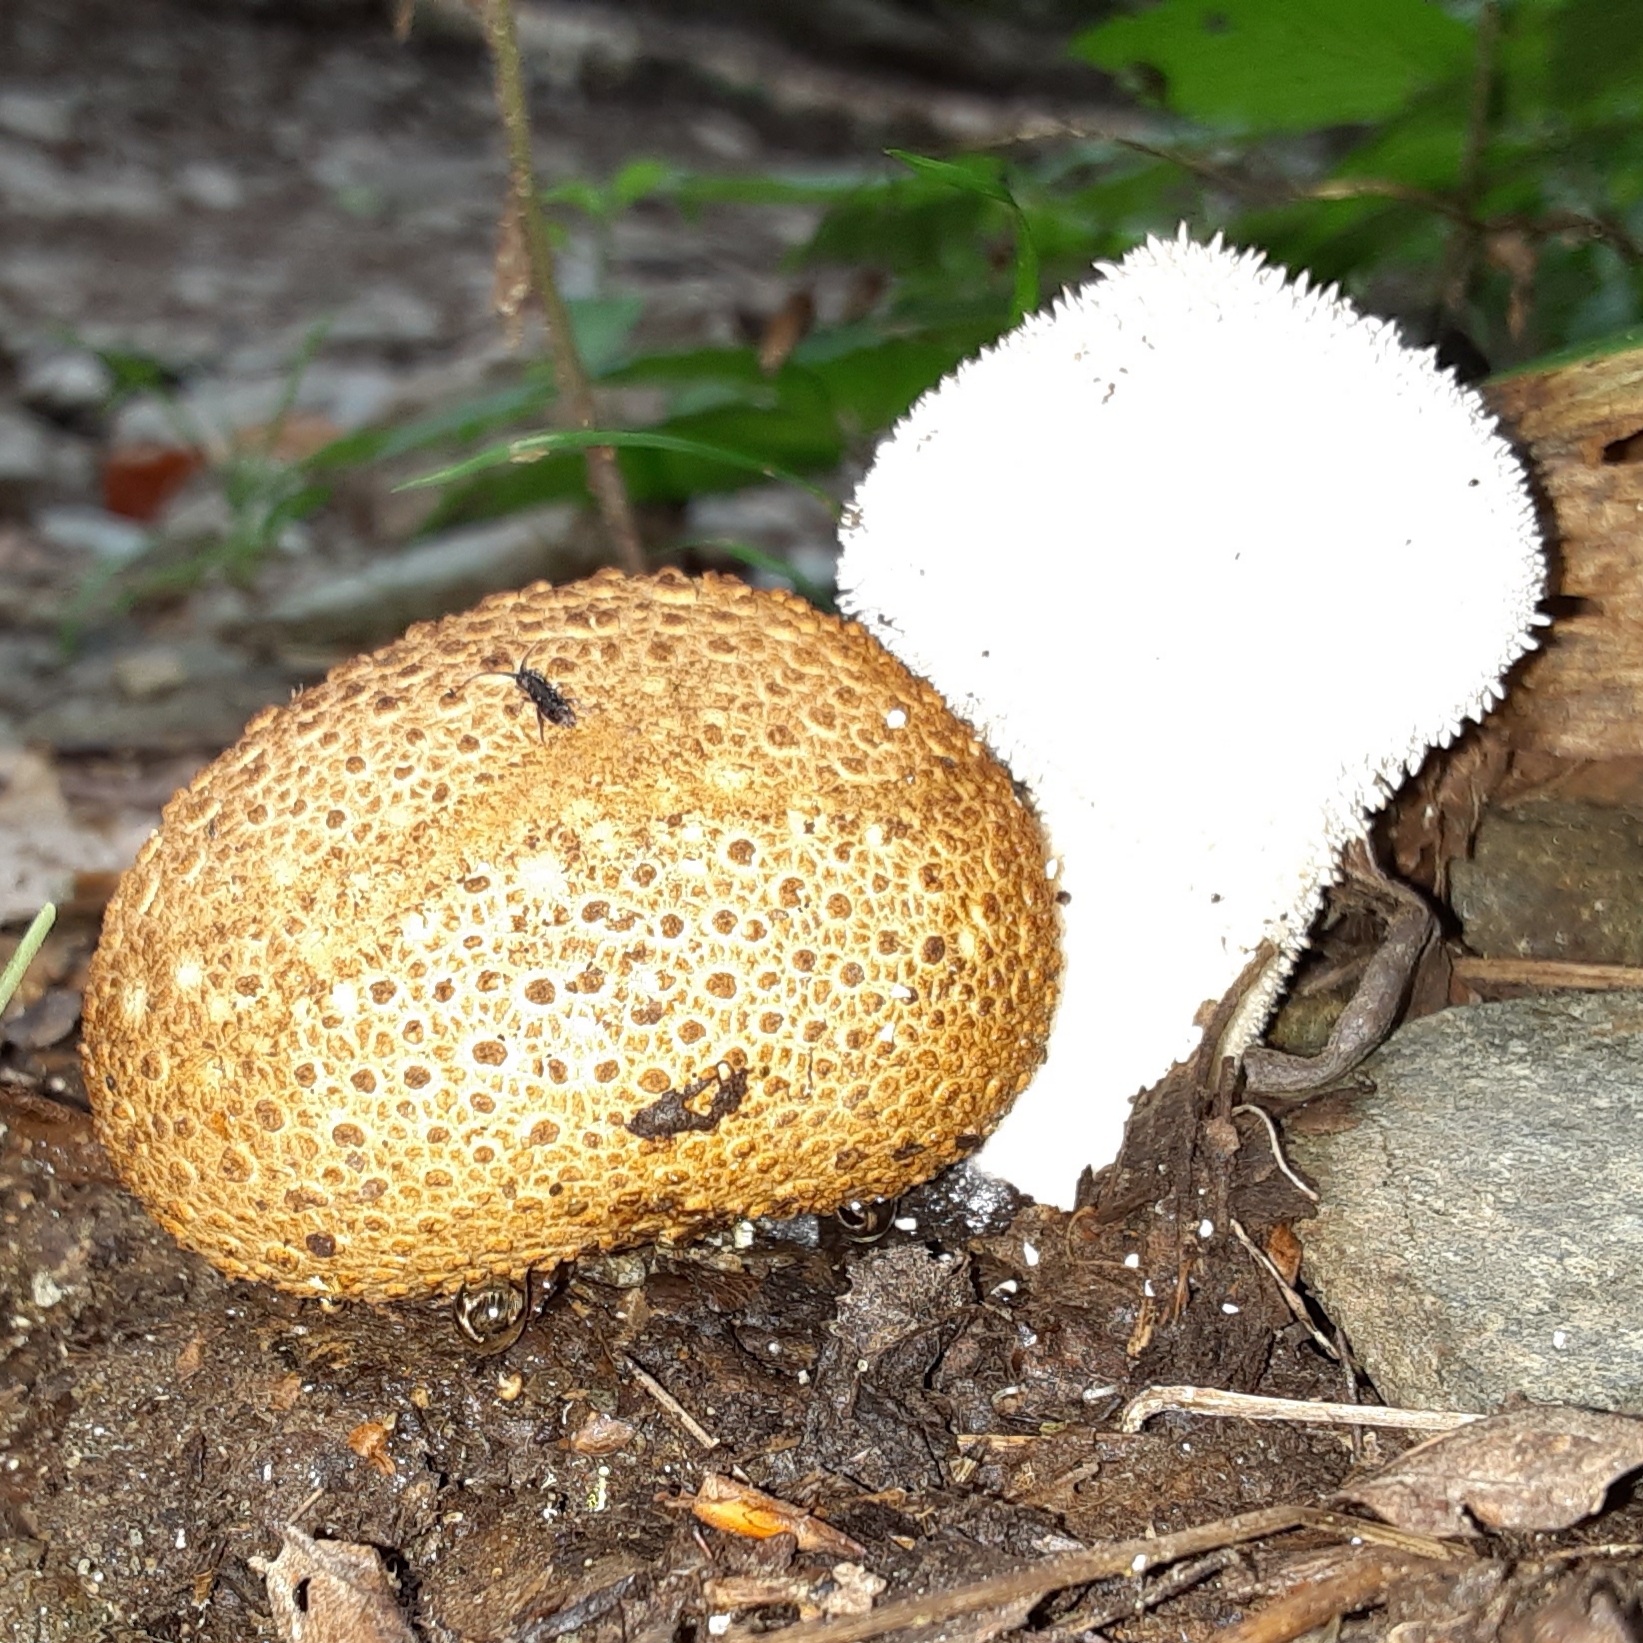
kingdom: Fungi
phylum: Basidiomycota
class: Agaricomycetes
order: Agaricales
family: Lycoperdaceae
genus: Lycoperdon
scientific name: Lycoperdon perlatum
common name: Common puffball
